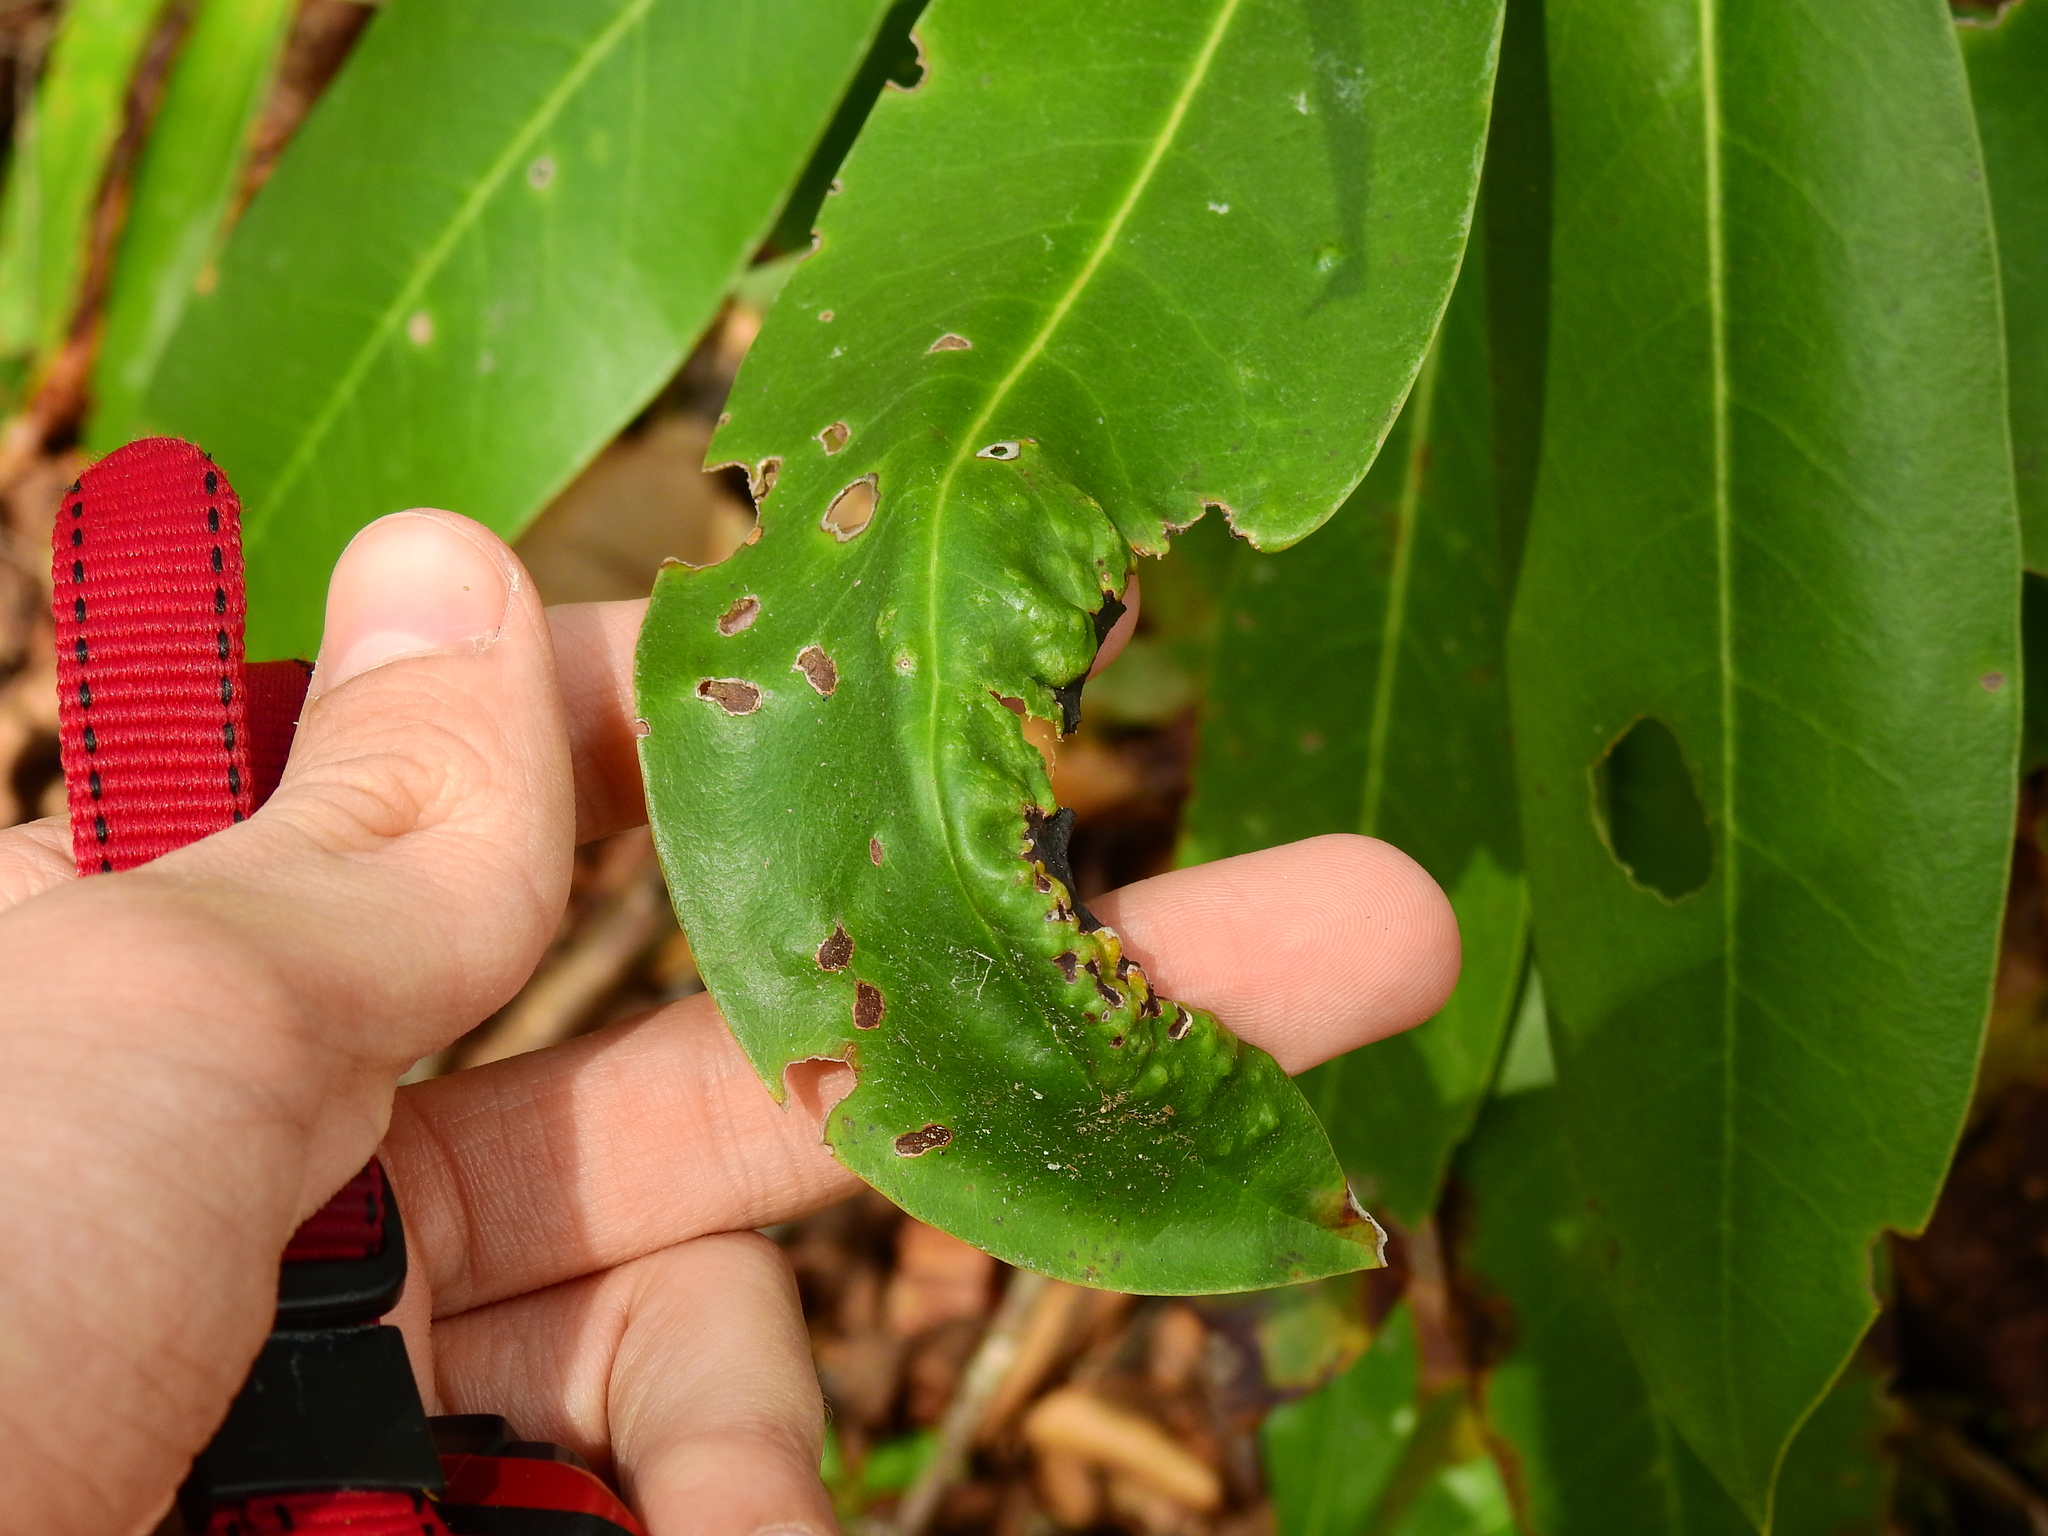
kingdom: Animalia
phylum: Arthropoda
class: Insecta
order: Diptera
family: Cecidomyiidae
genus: Clinodiplosis
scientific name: Clinodiplosis rhododentri
